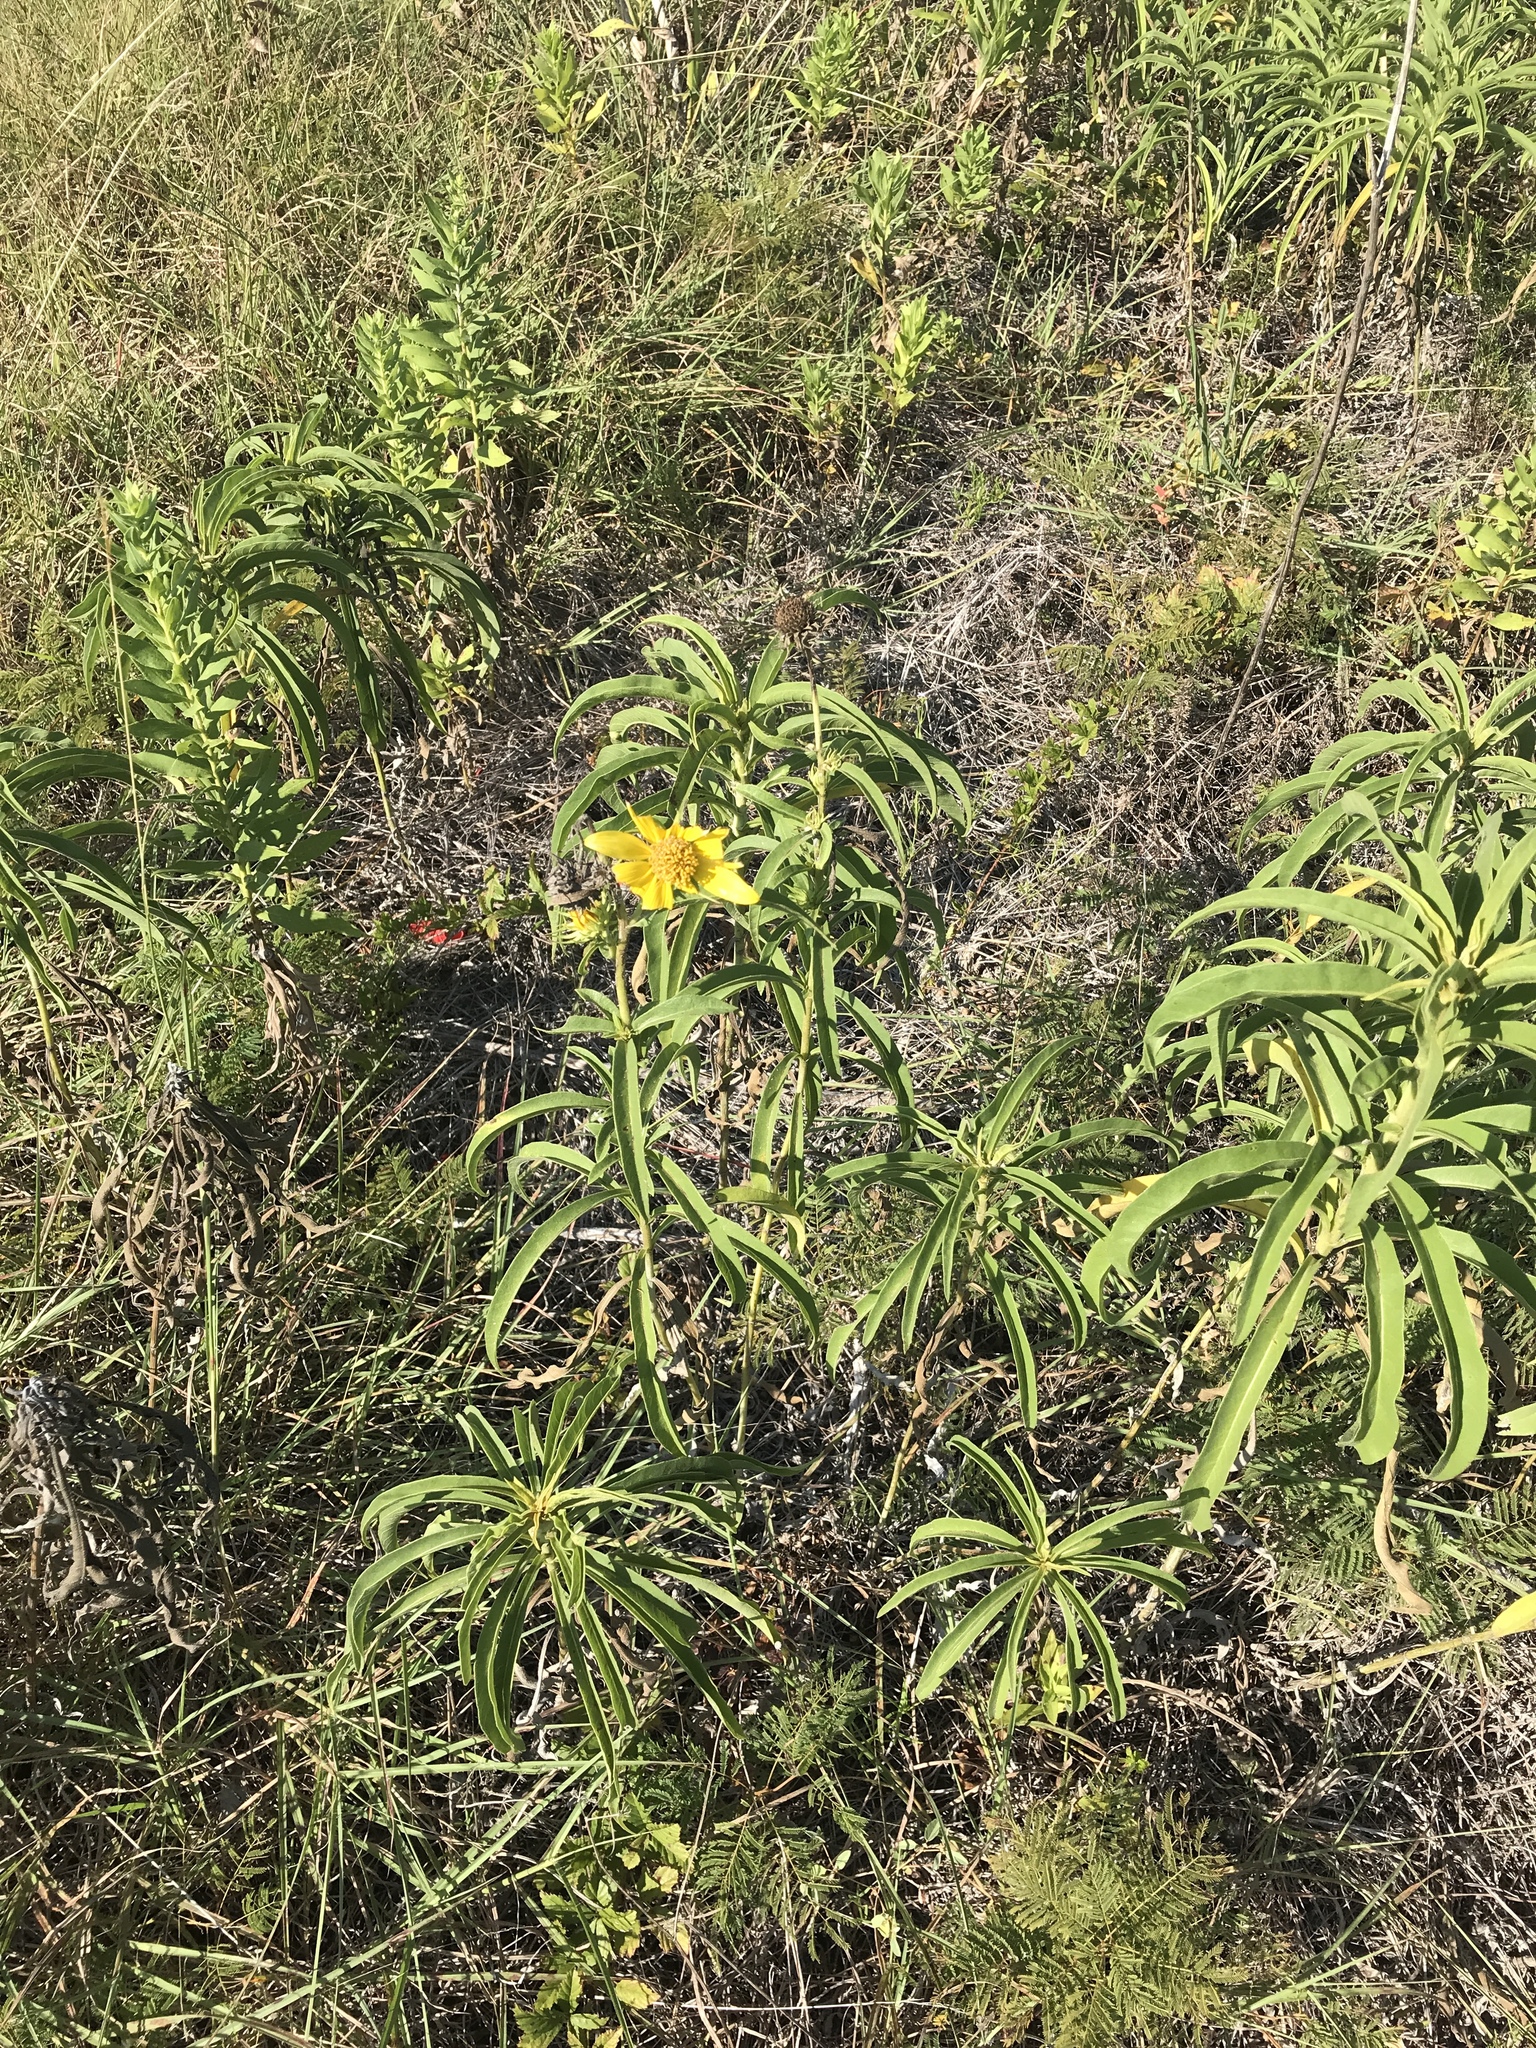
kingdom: Plantae
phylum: Tracheophyta
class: Magnoliopsida
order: Asterales
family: Asteraceae
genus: Helianthus
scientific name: Helianthus maximiliani
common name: Maximilian's sunflower
